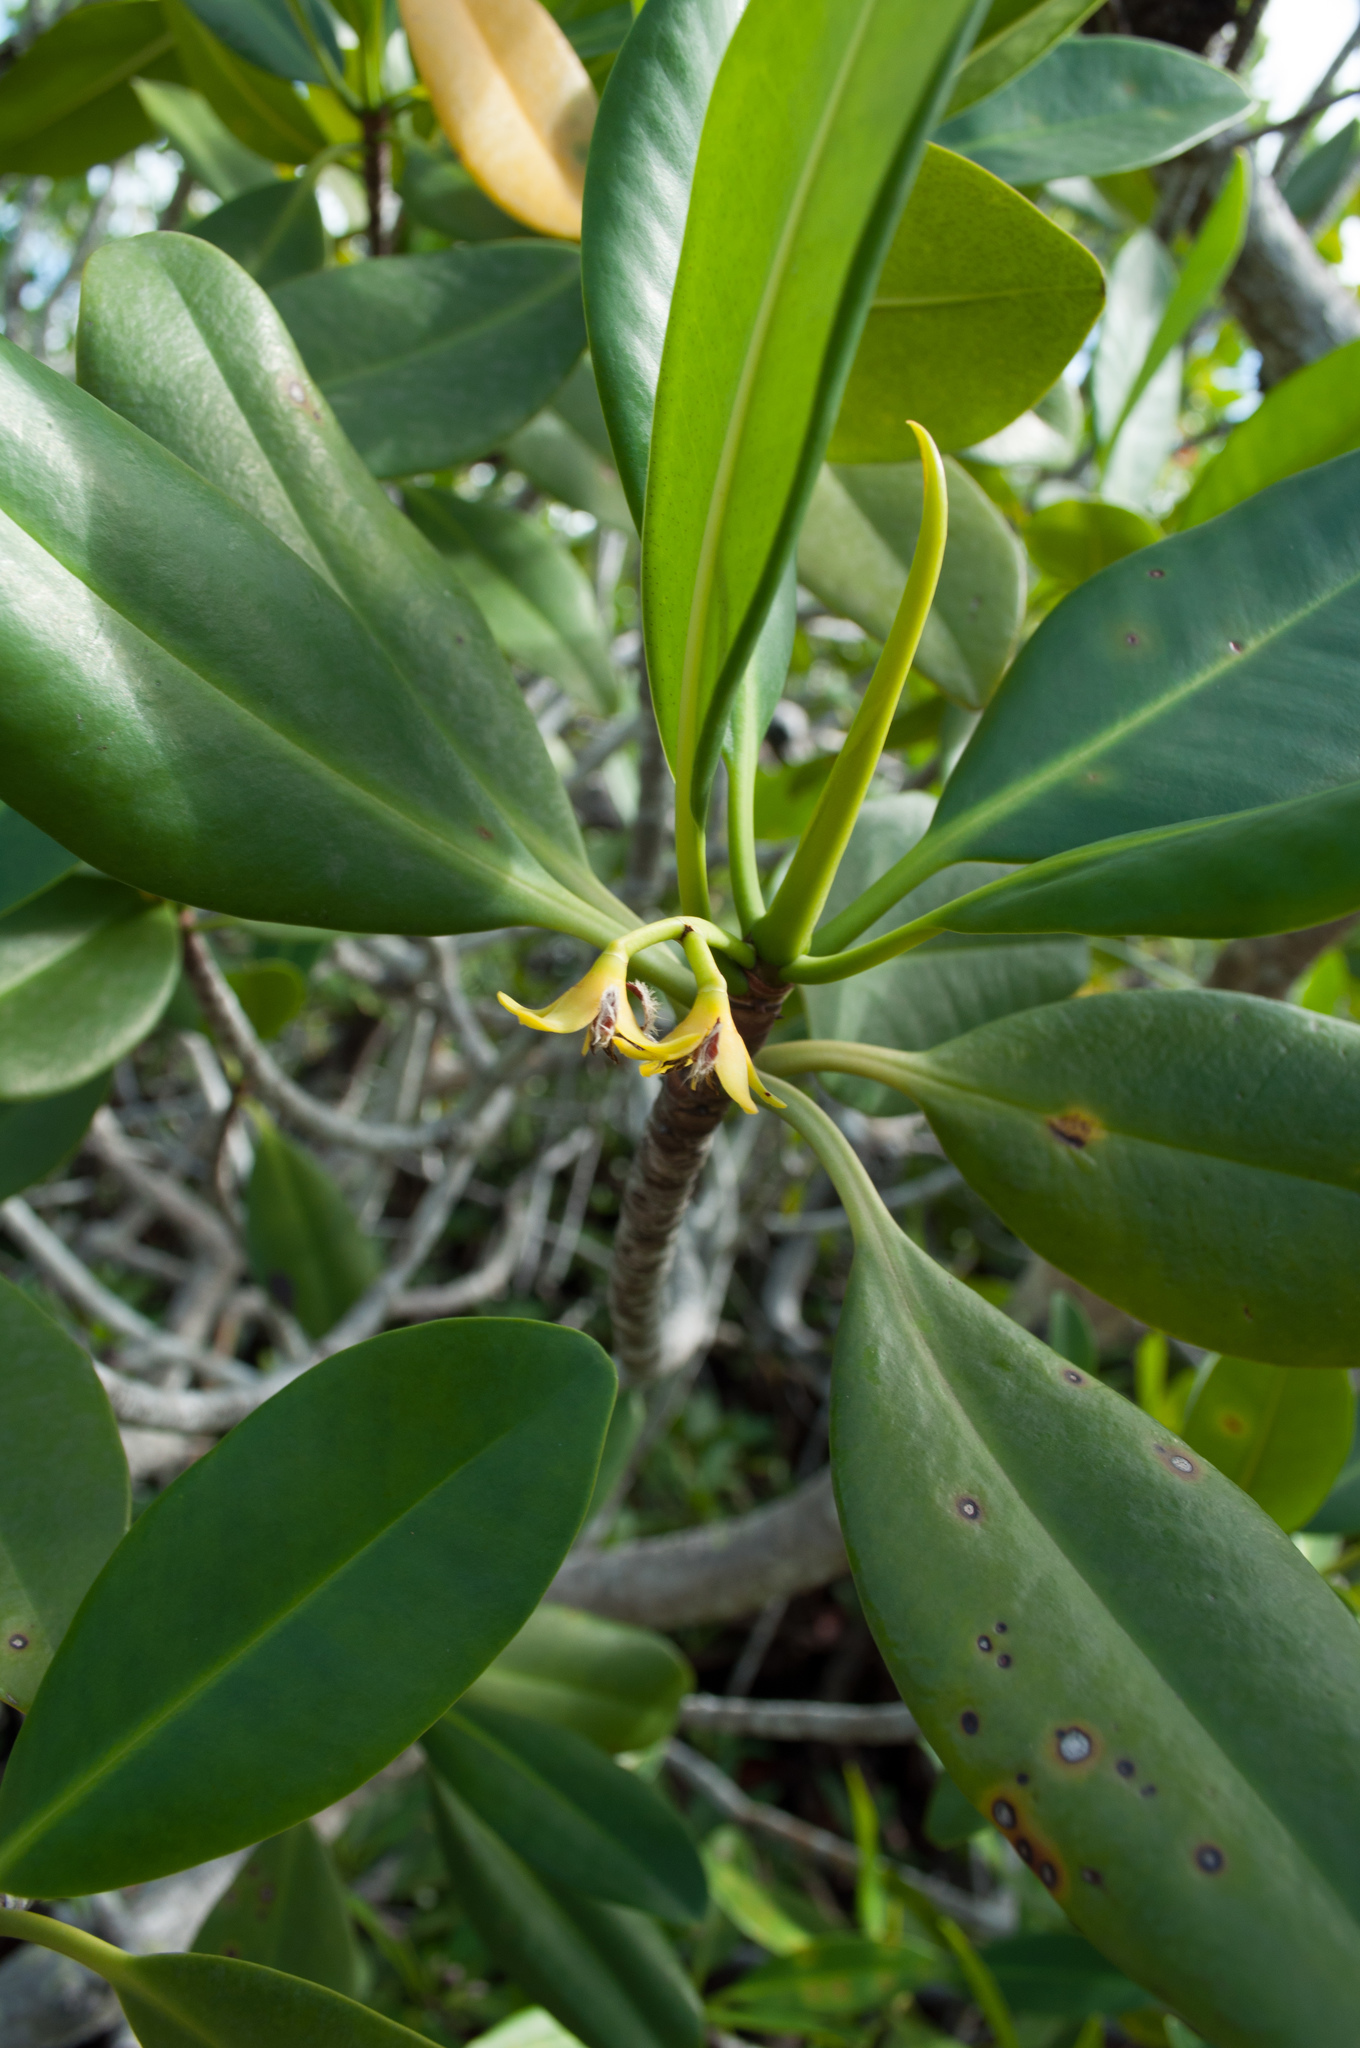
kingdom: Plantae
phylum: Tracheophyta
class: Magnoliopsida
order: Malpighiales
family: Rhizophoraceae
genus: Rhizophora
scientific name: Rhizophora mangle
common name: Red mangrove
